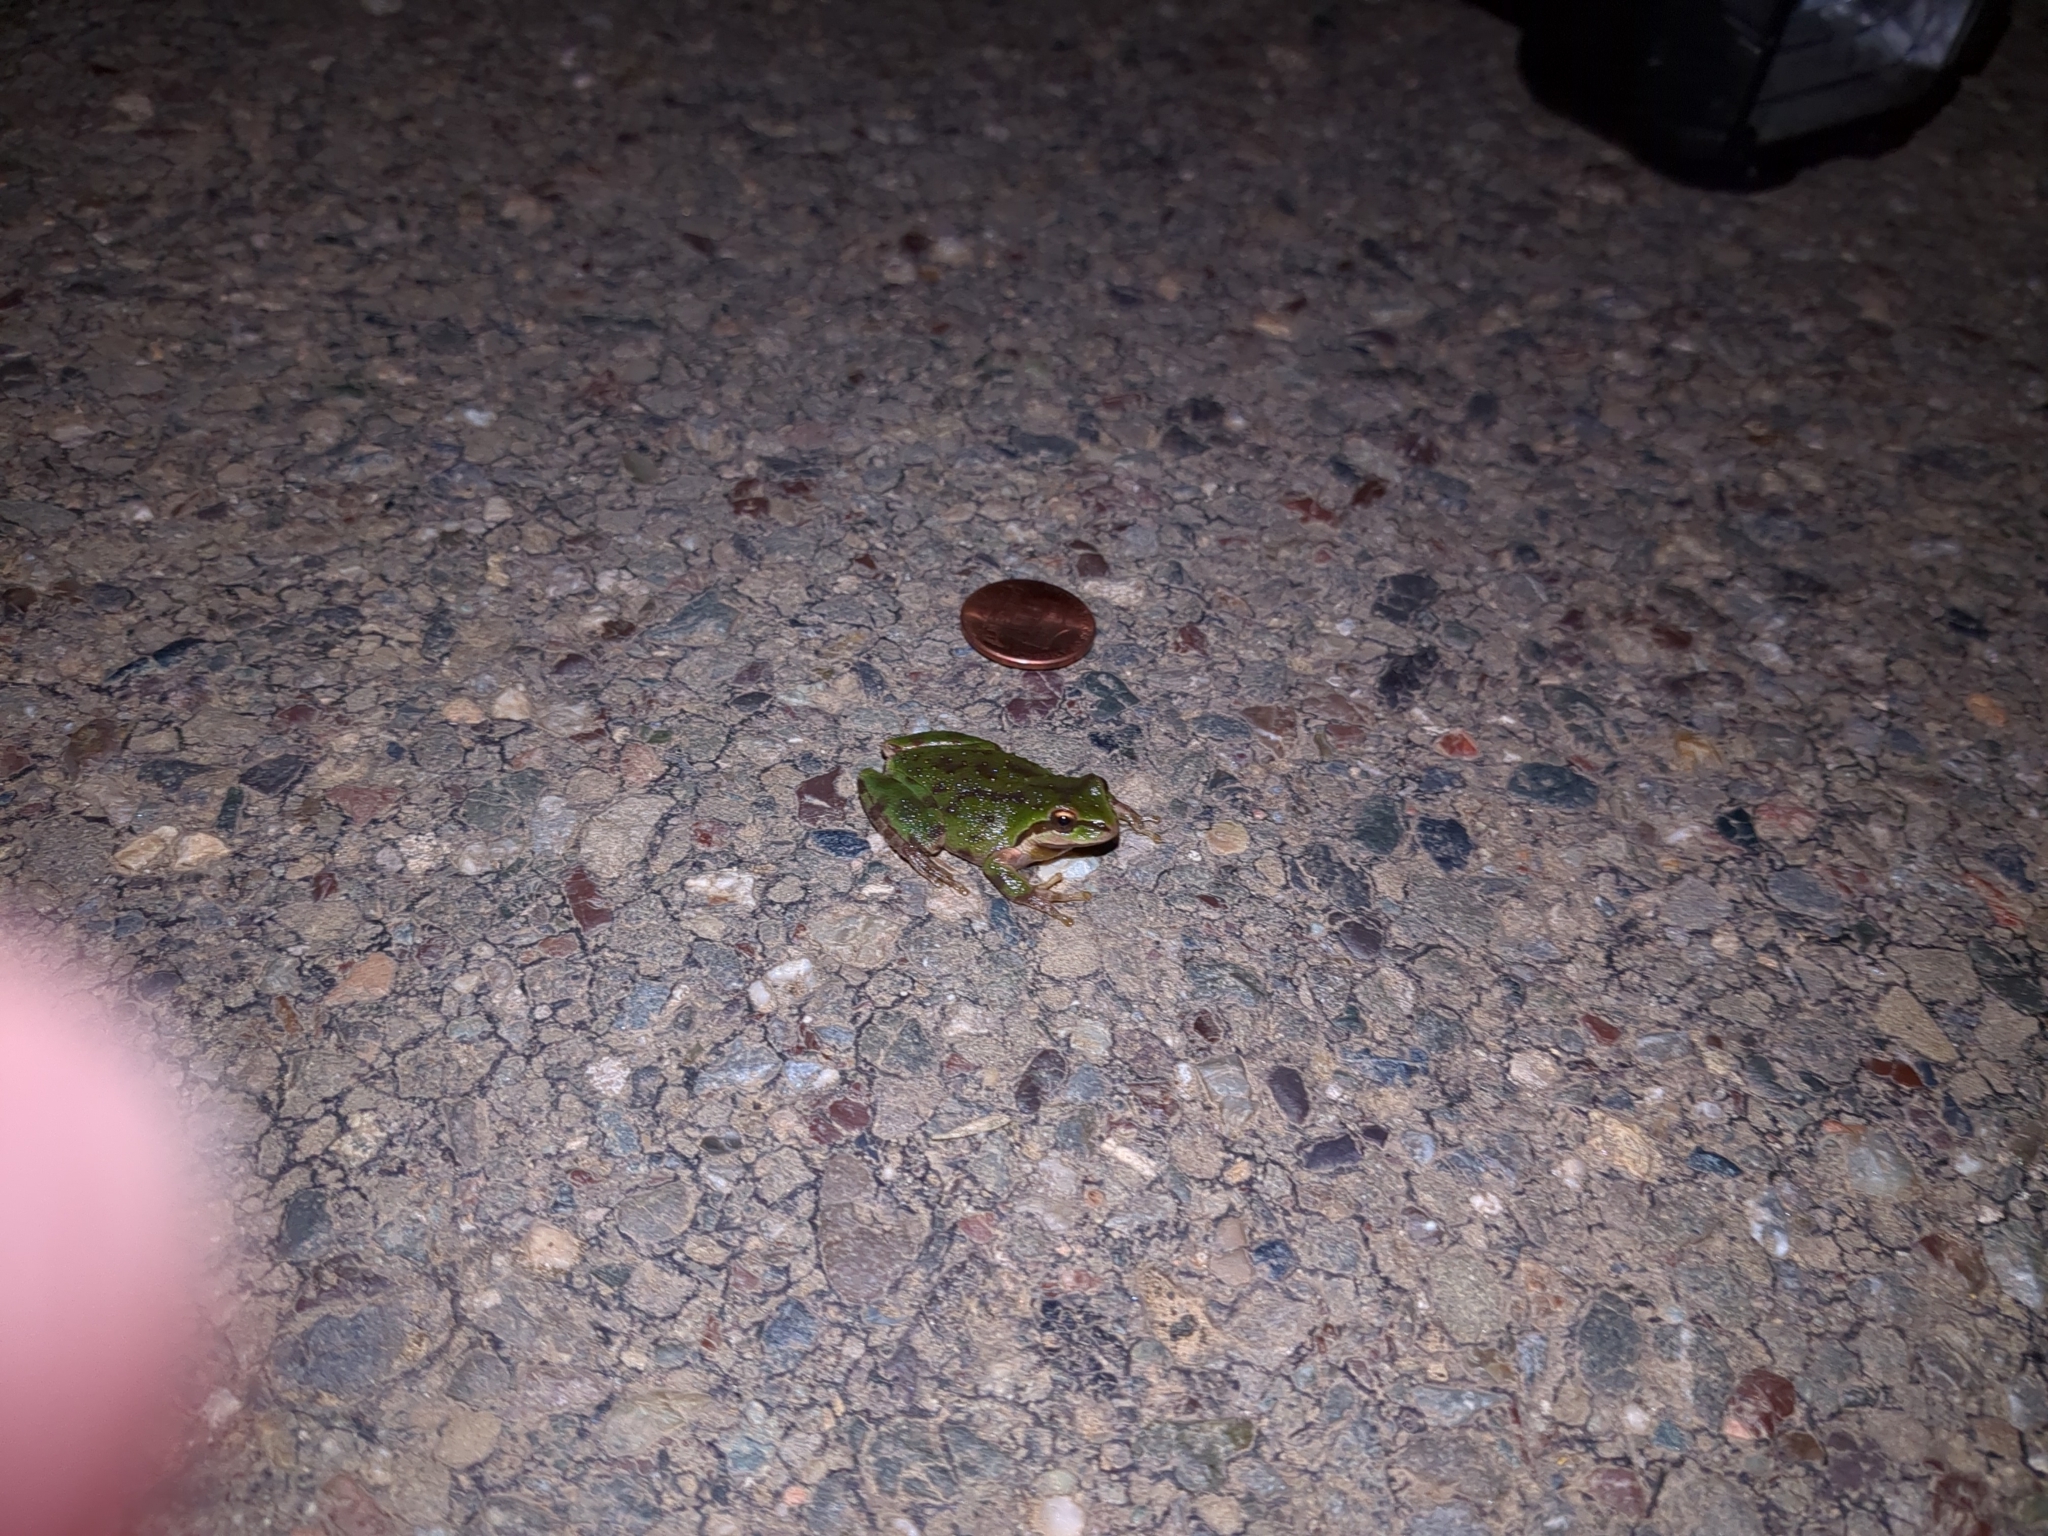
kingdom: Animalia
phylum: Chordata
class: Amphibia
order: Anura
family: Hylidae
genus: Pseudacris
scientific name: Pseudacris regilla
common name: Pacific chorus frog
